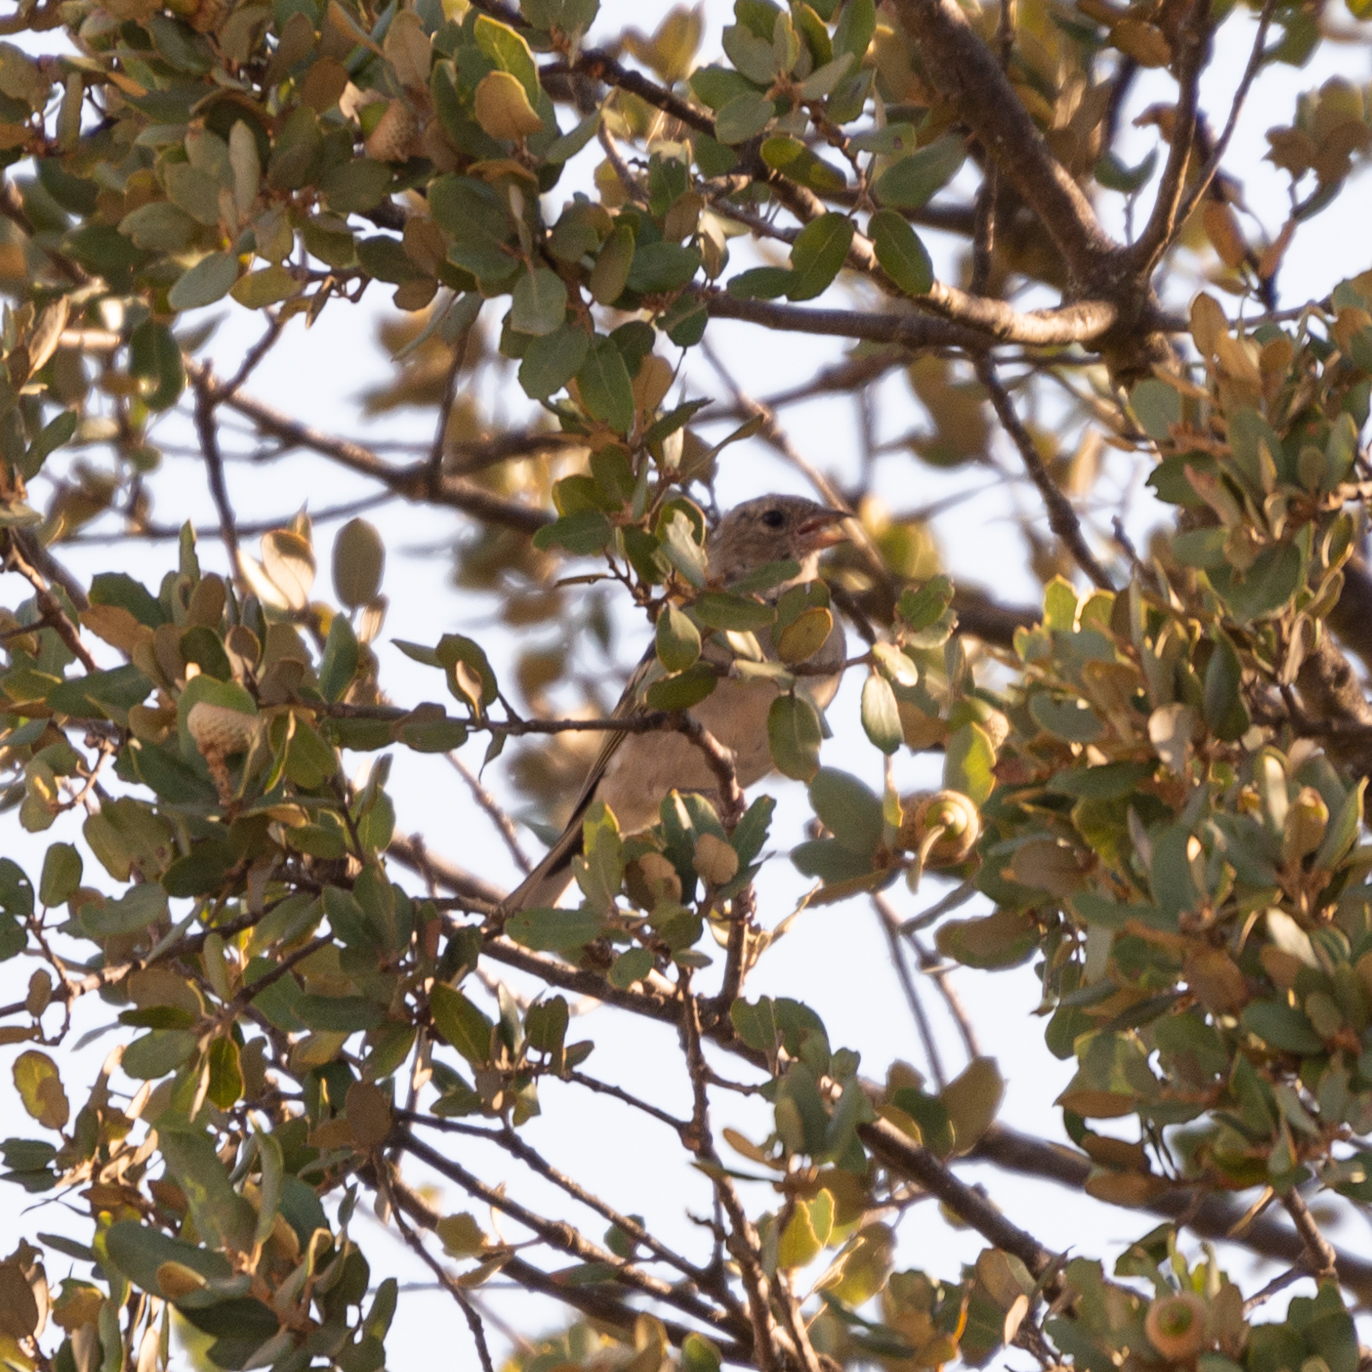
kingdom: Animalia
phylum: Chordata
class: Aves
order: Passeriformes
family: Fringillidae
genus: Carduelis
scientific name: Carduelis carduelis
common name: European goldfinch
